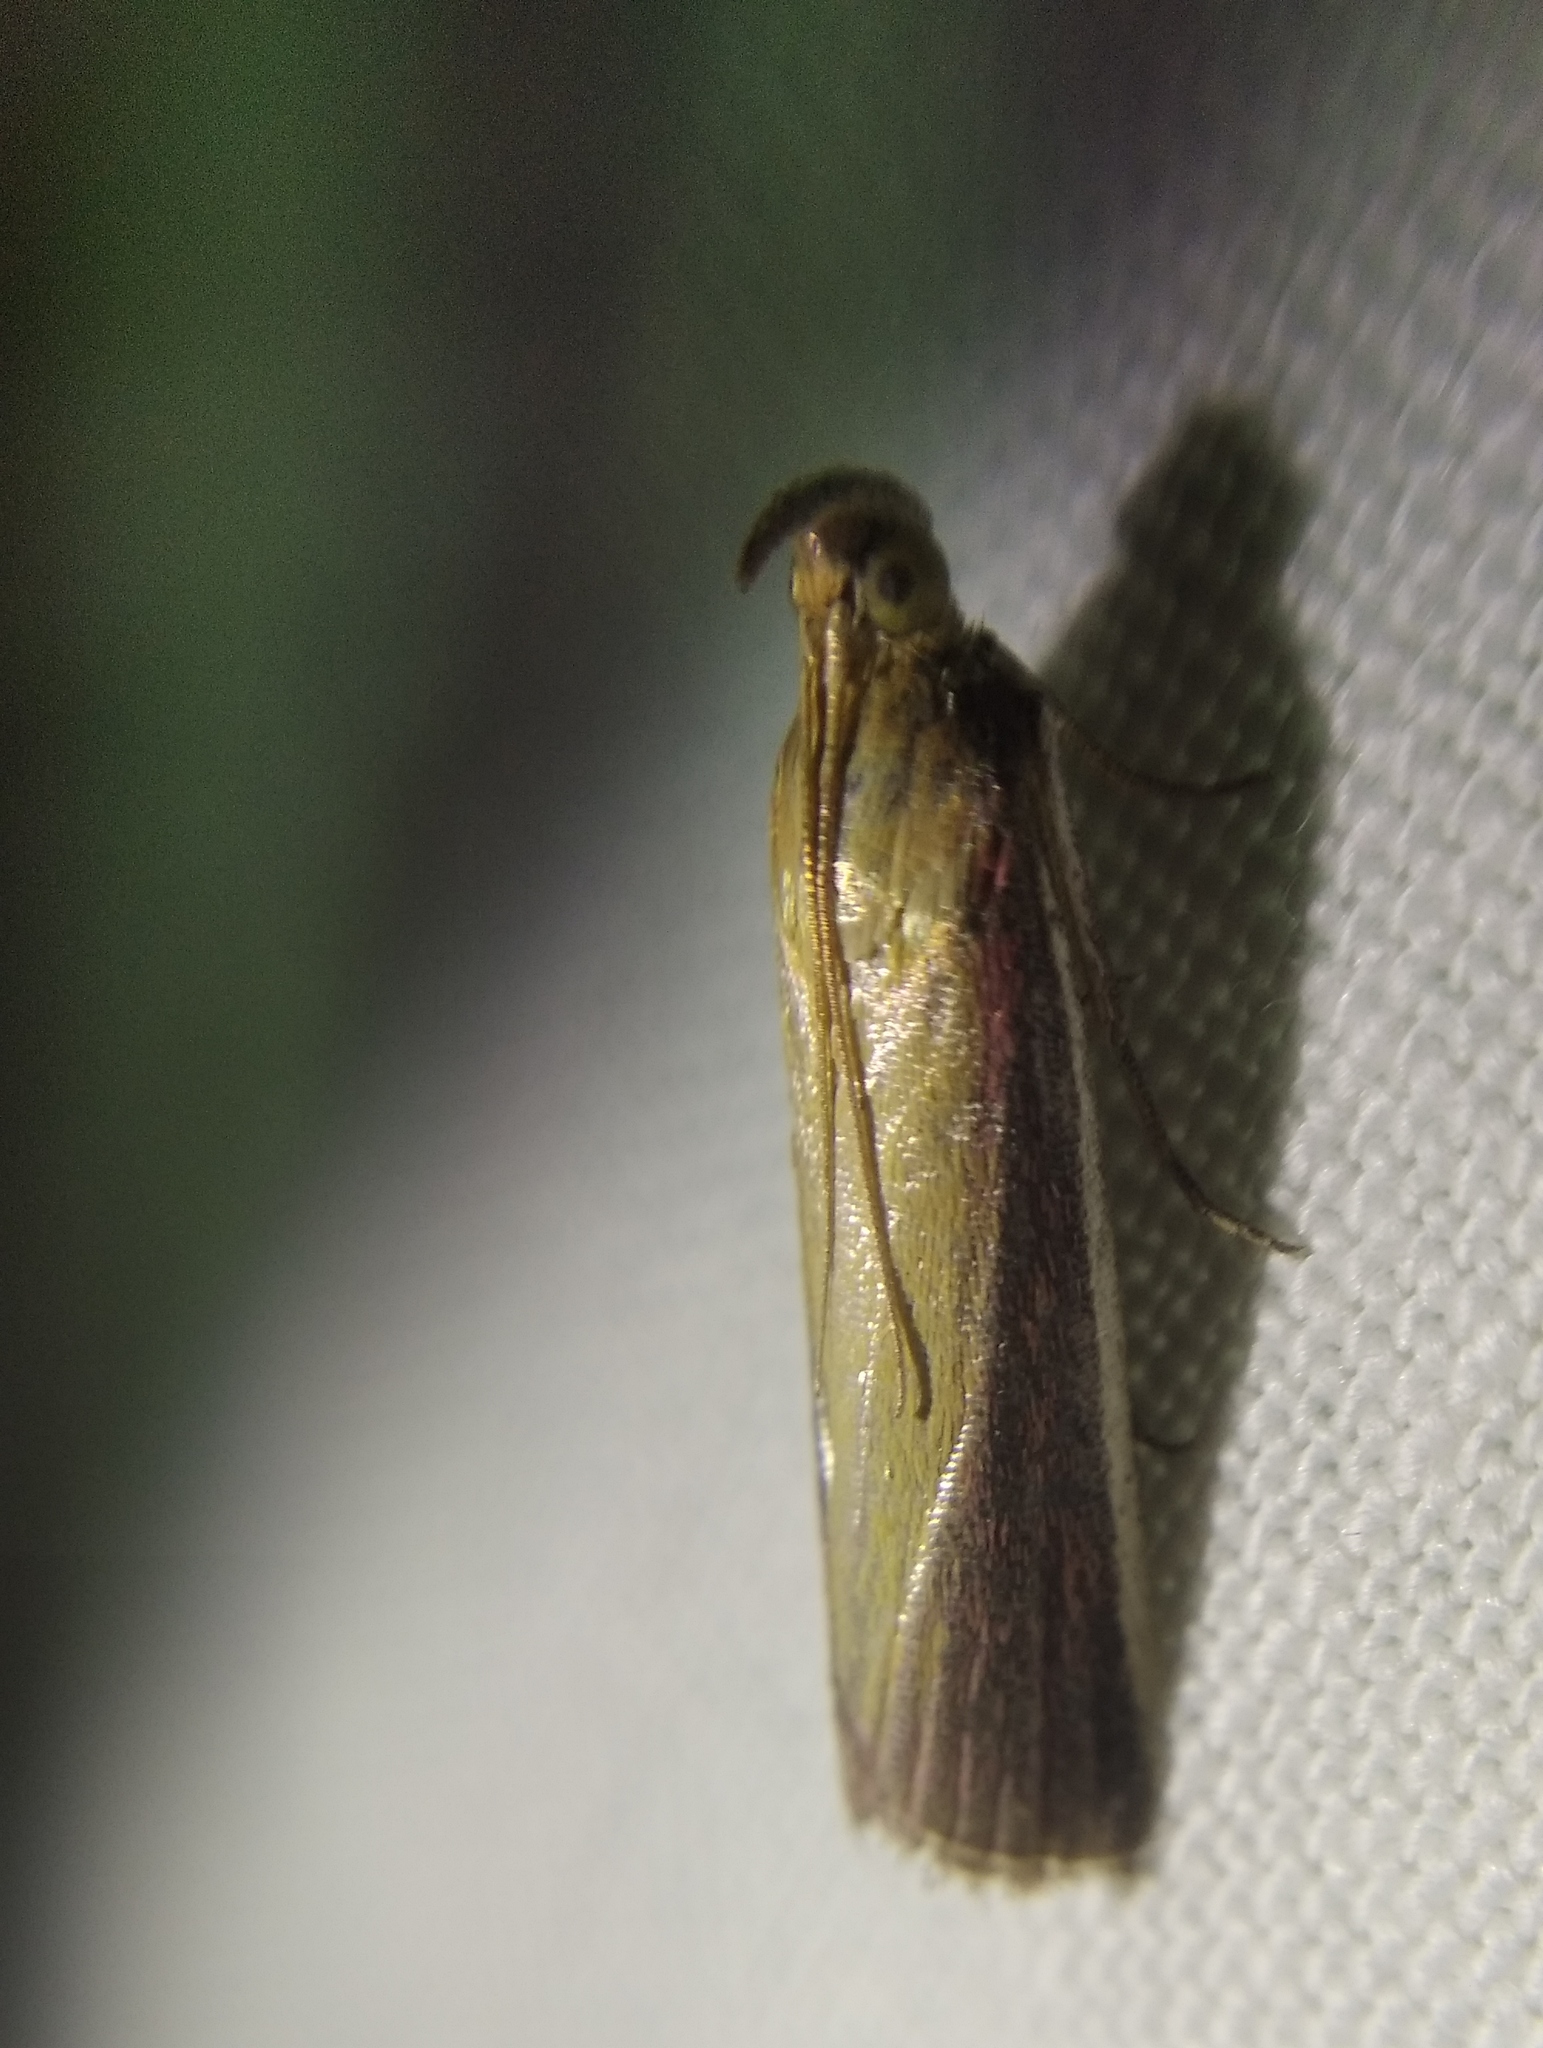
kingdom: Animalia
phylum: Arthropoda
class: Insecta
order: Lepidoptera
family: Pyralidae
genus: Oncocera
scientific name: Oncocera semirubella
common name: Rosy-striped knot-horn
